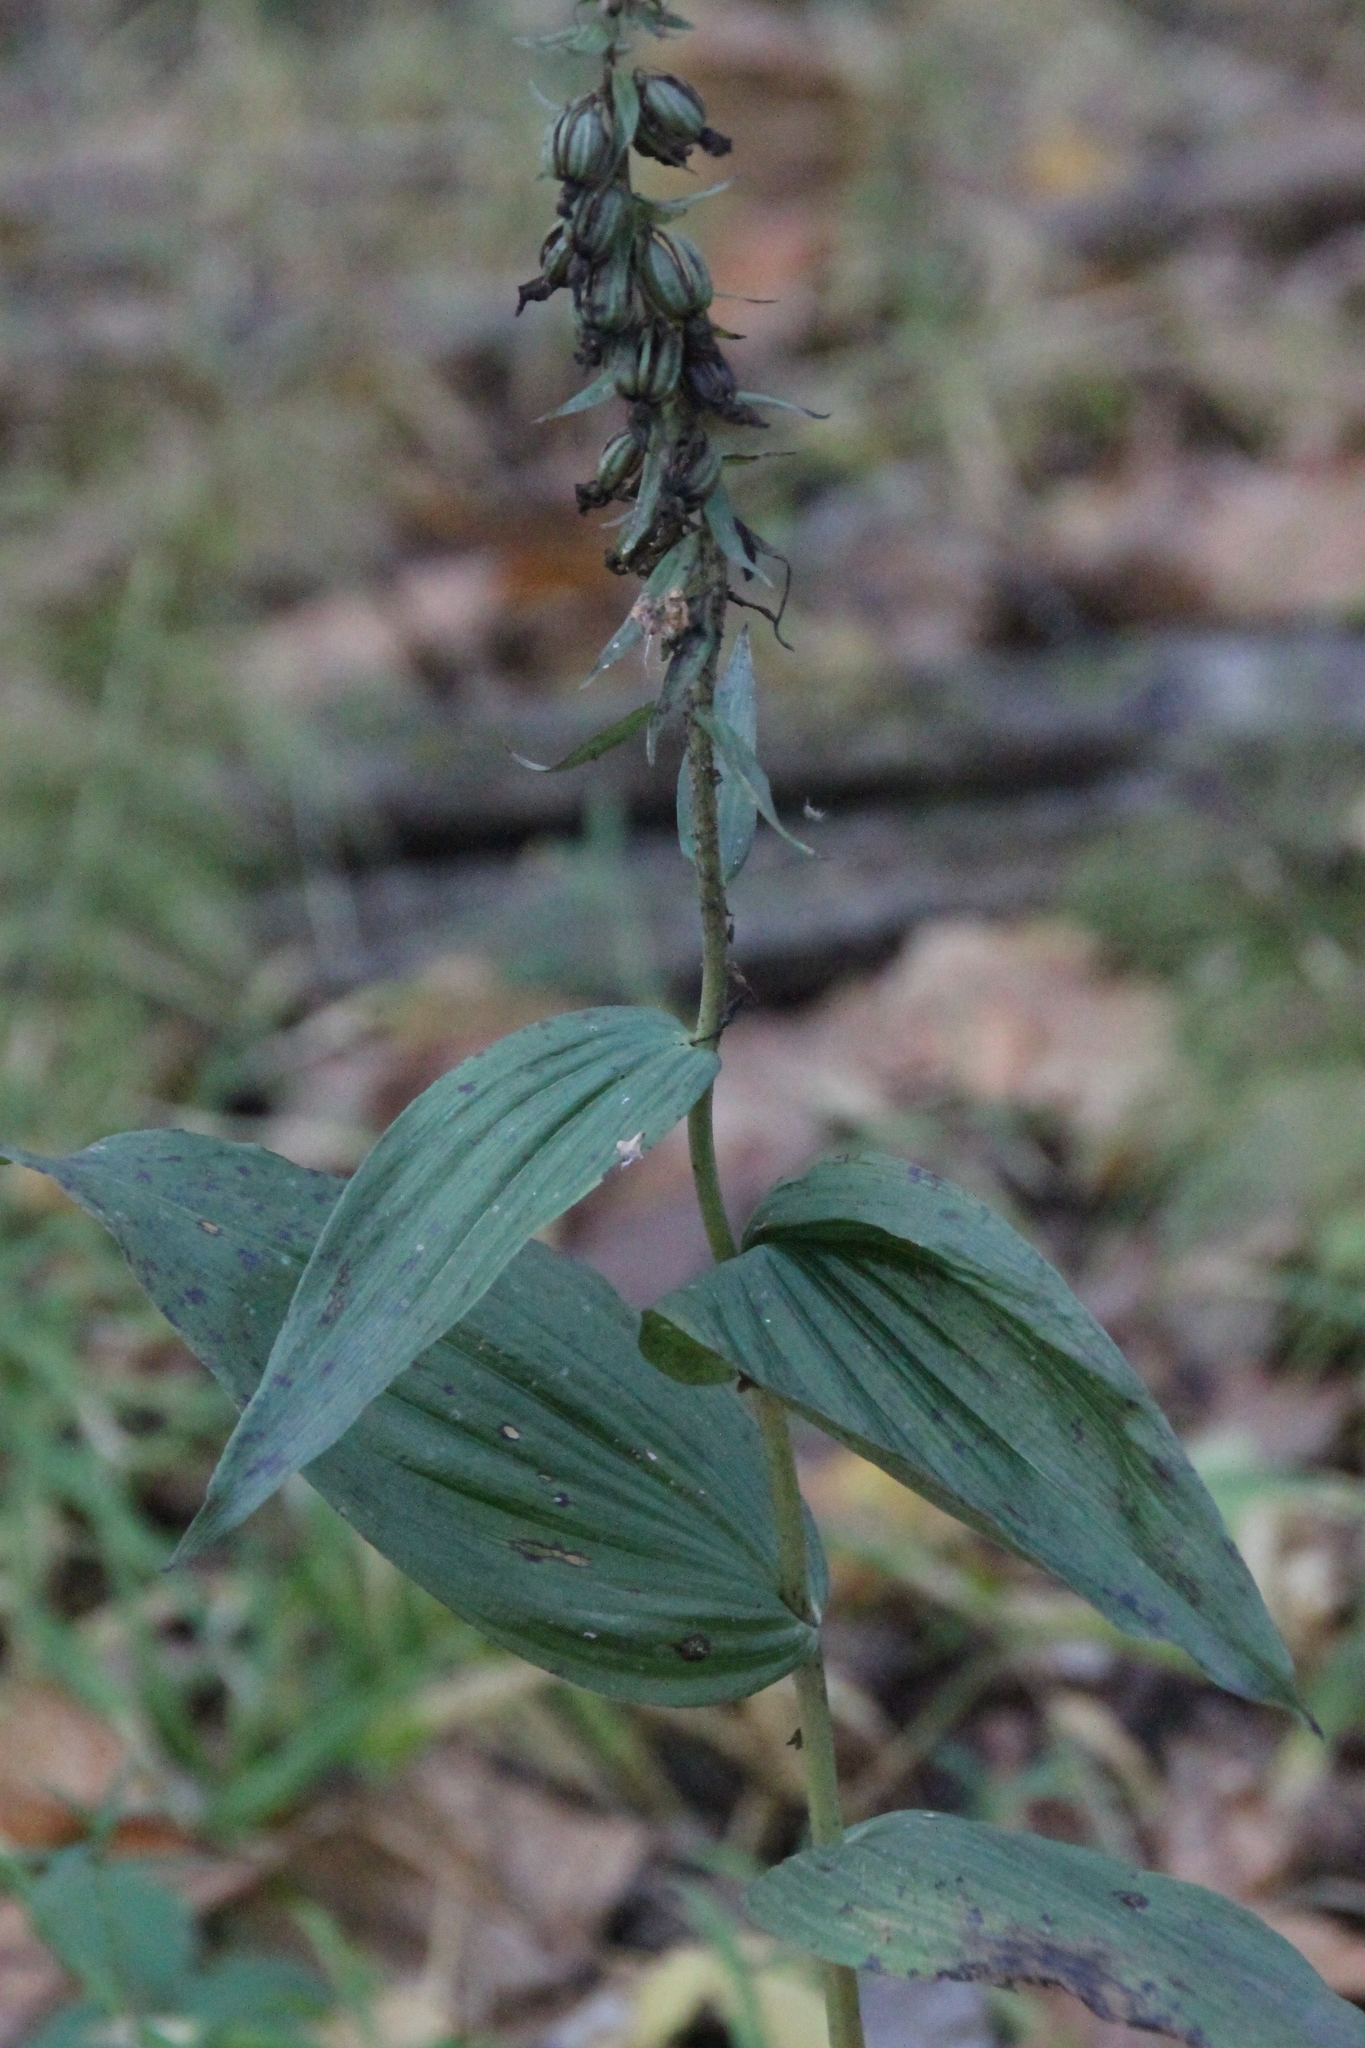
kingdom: Plantae
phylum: Tracheophyta
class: Liliopsida
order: Asparagales
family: Orchidaceae
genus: Epipactis
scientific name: Epipactis helleborine
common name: Broad-leaved helleborine
